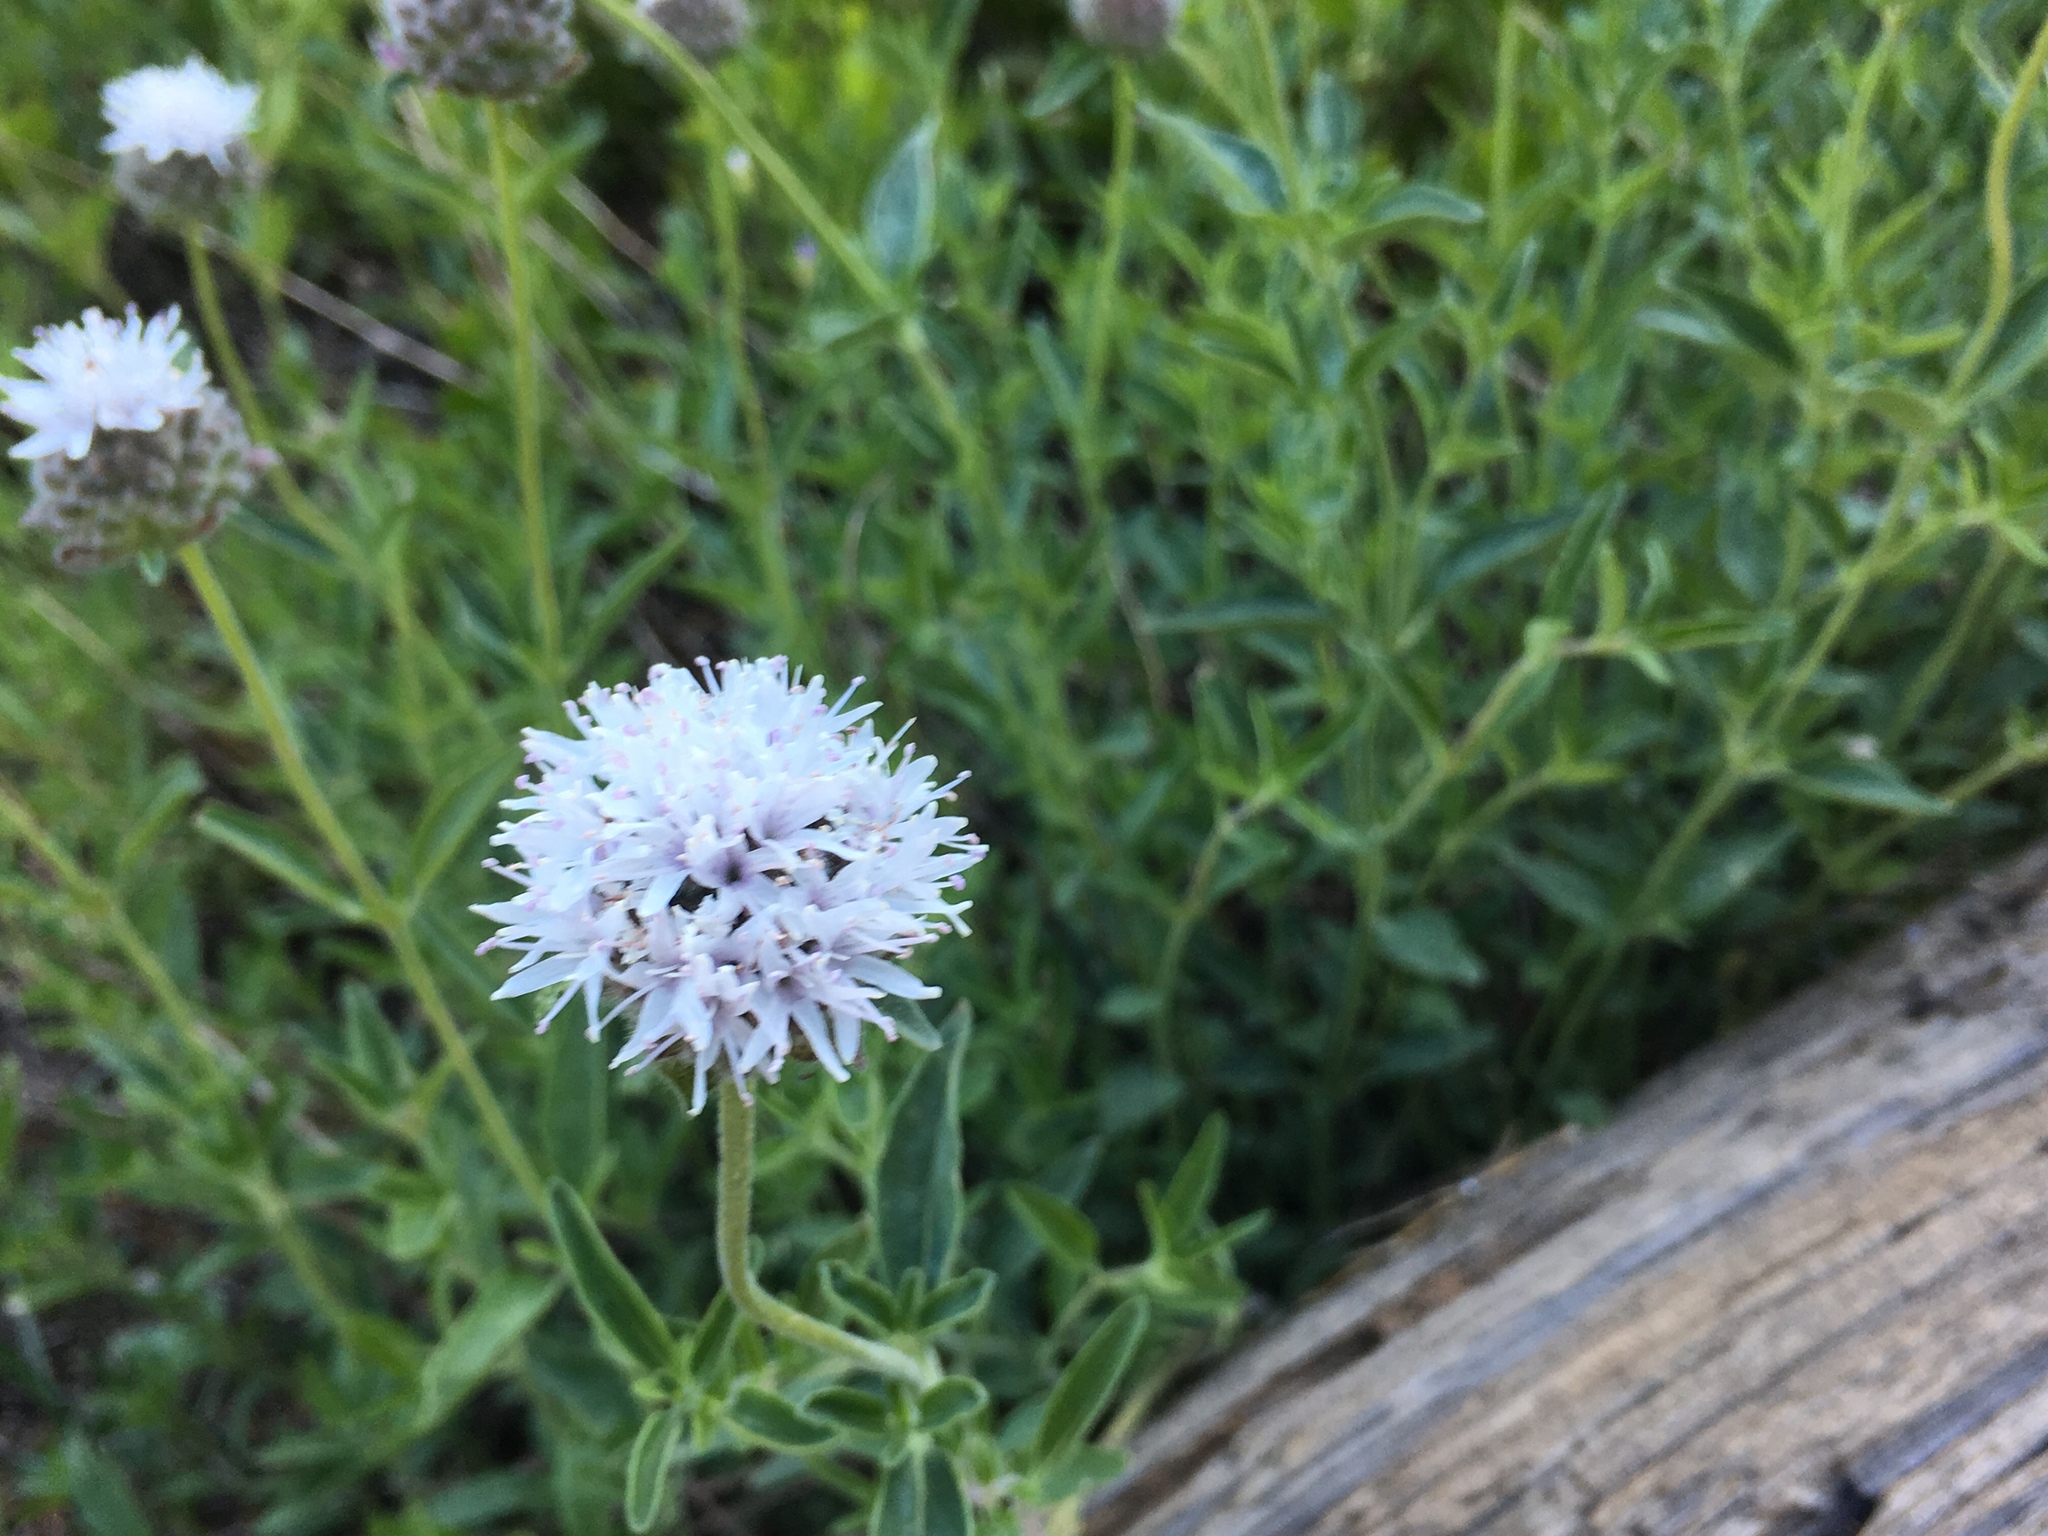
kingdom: Plantae
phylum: Tracheophyta
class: Magnoliopsida
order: Lamiales
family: Lamiaceae
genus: Monardella
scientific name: Monardella odoratissima
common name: Pacific monardella
